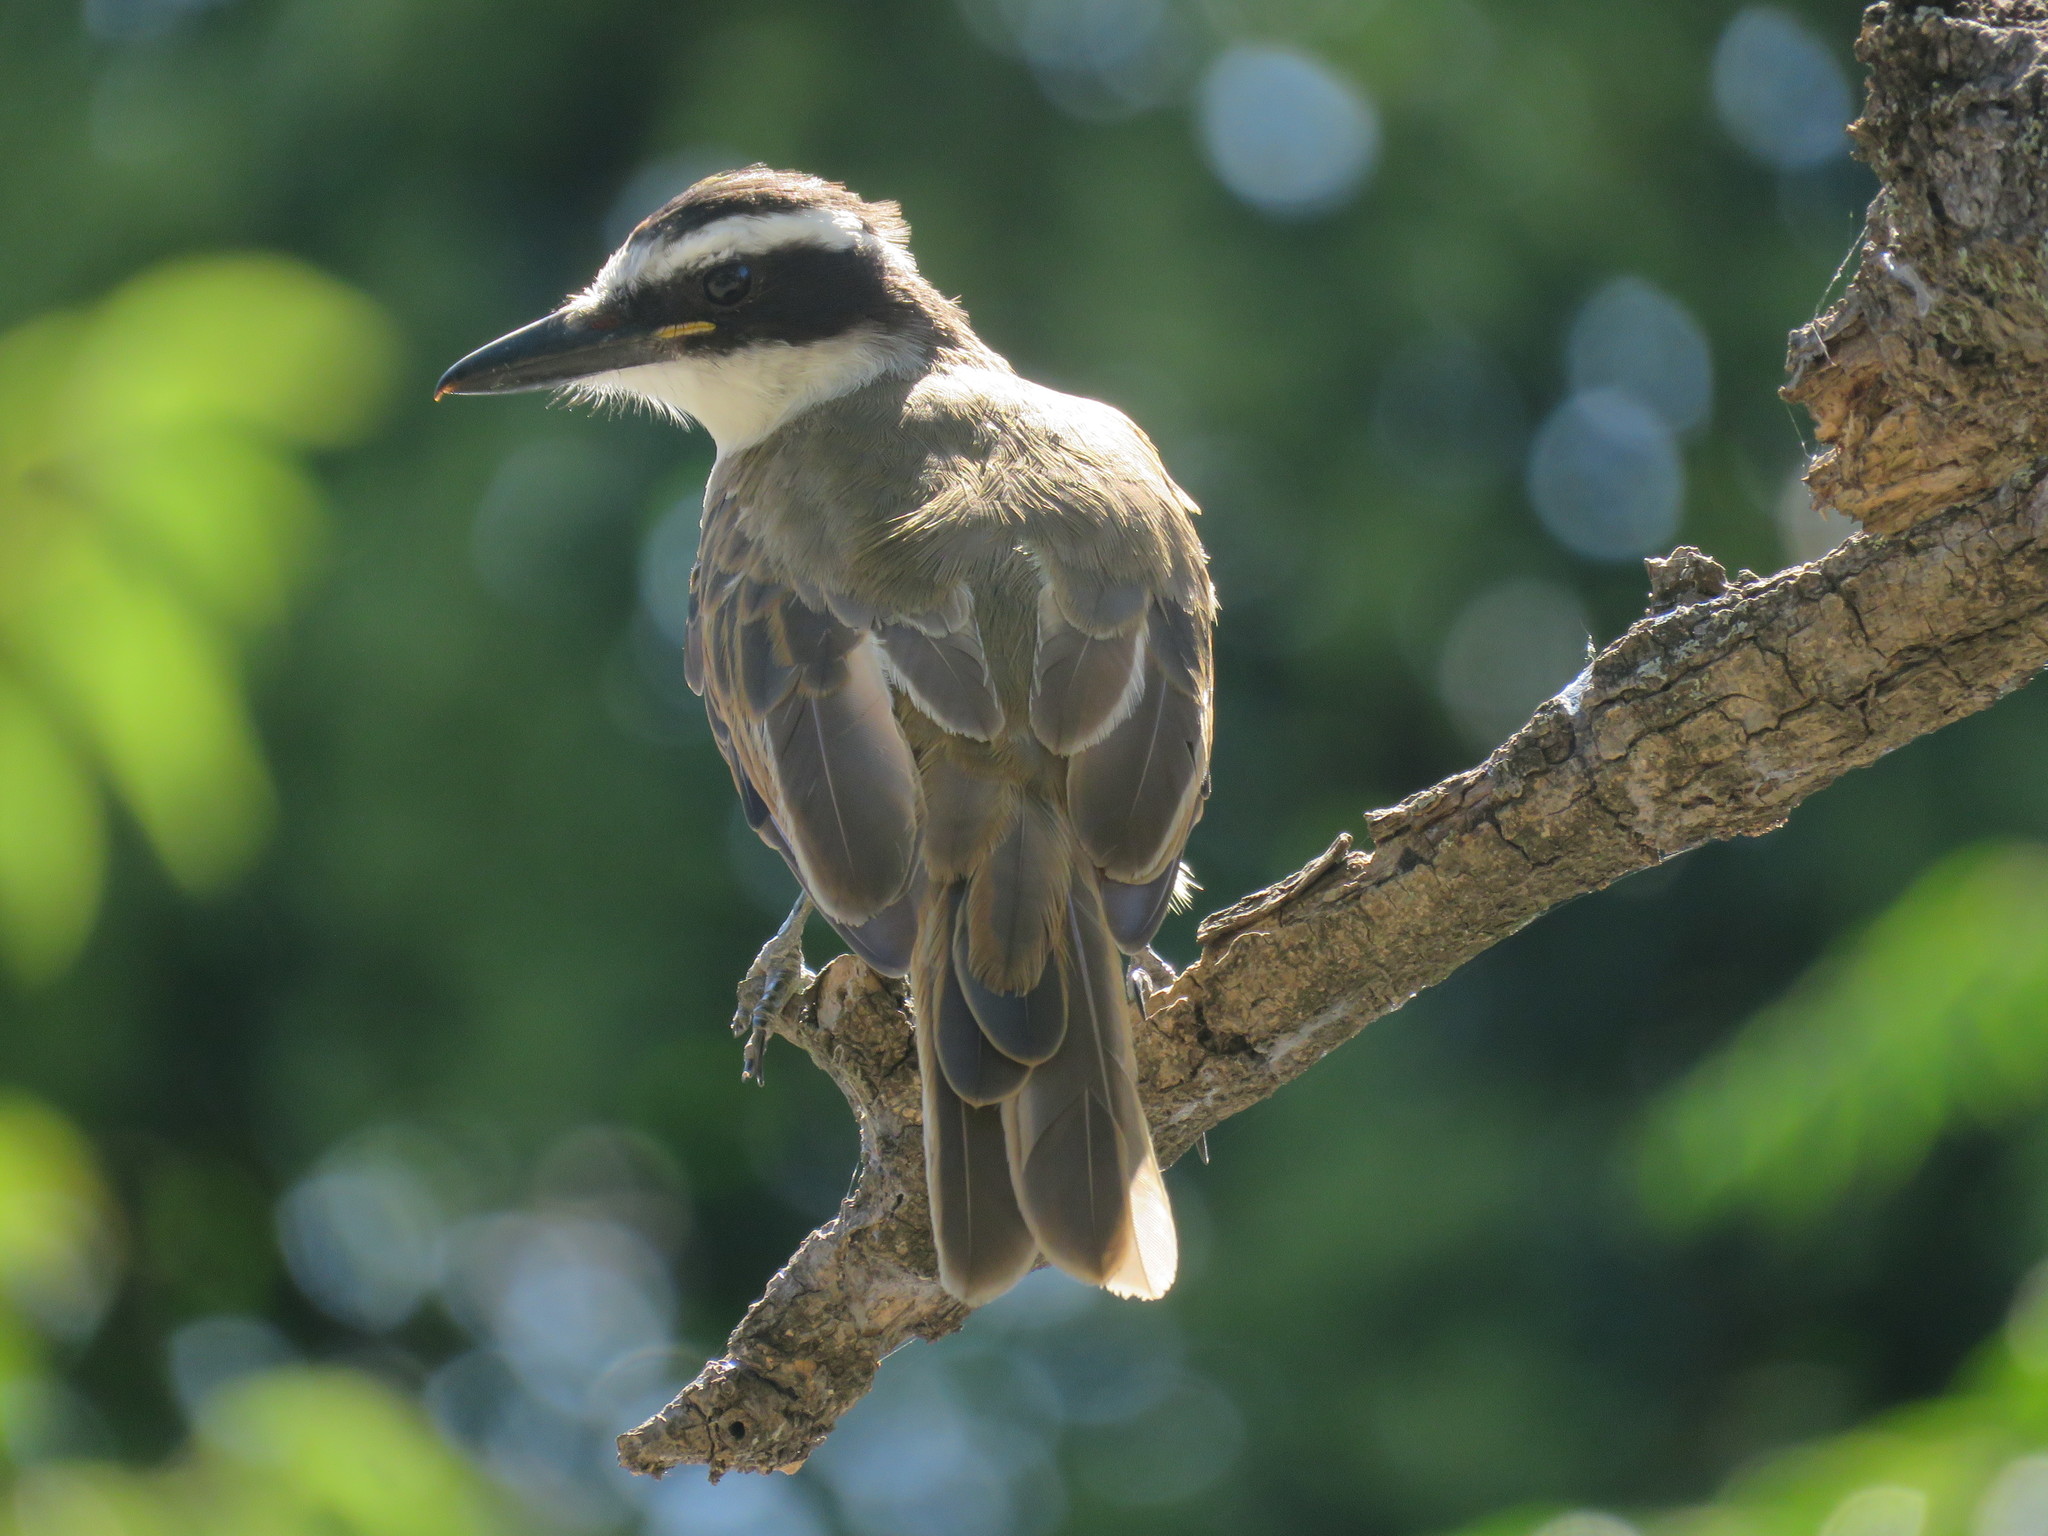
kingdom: Animalia
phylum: Chordata
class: Aves
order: Passeriformes
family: Tyrannidae
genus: Pitangus
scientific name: Pitangus sulphuratus
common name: Great kiskadee
